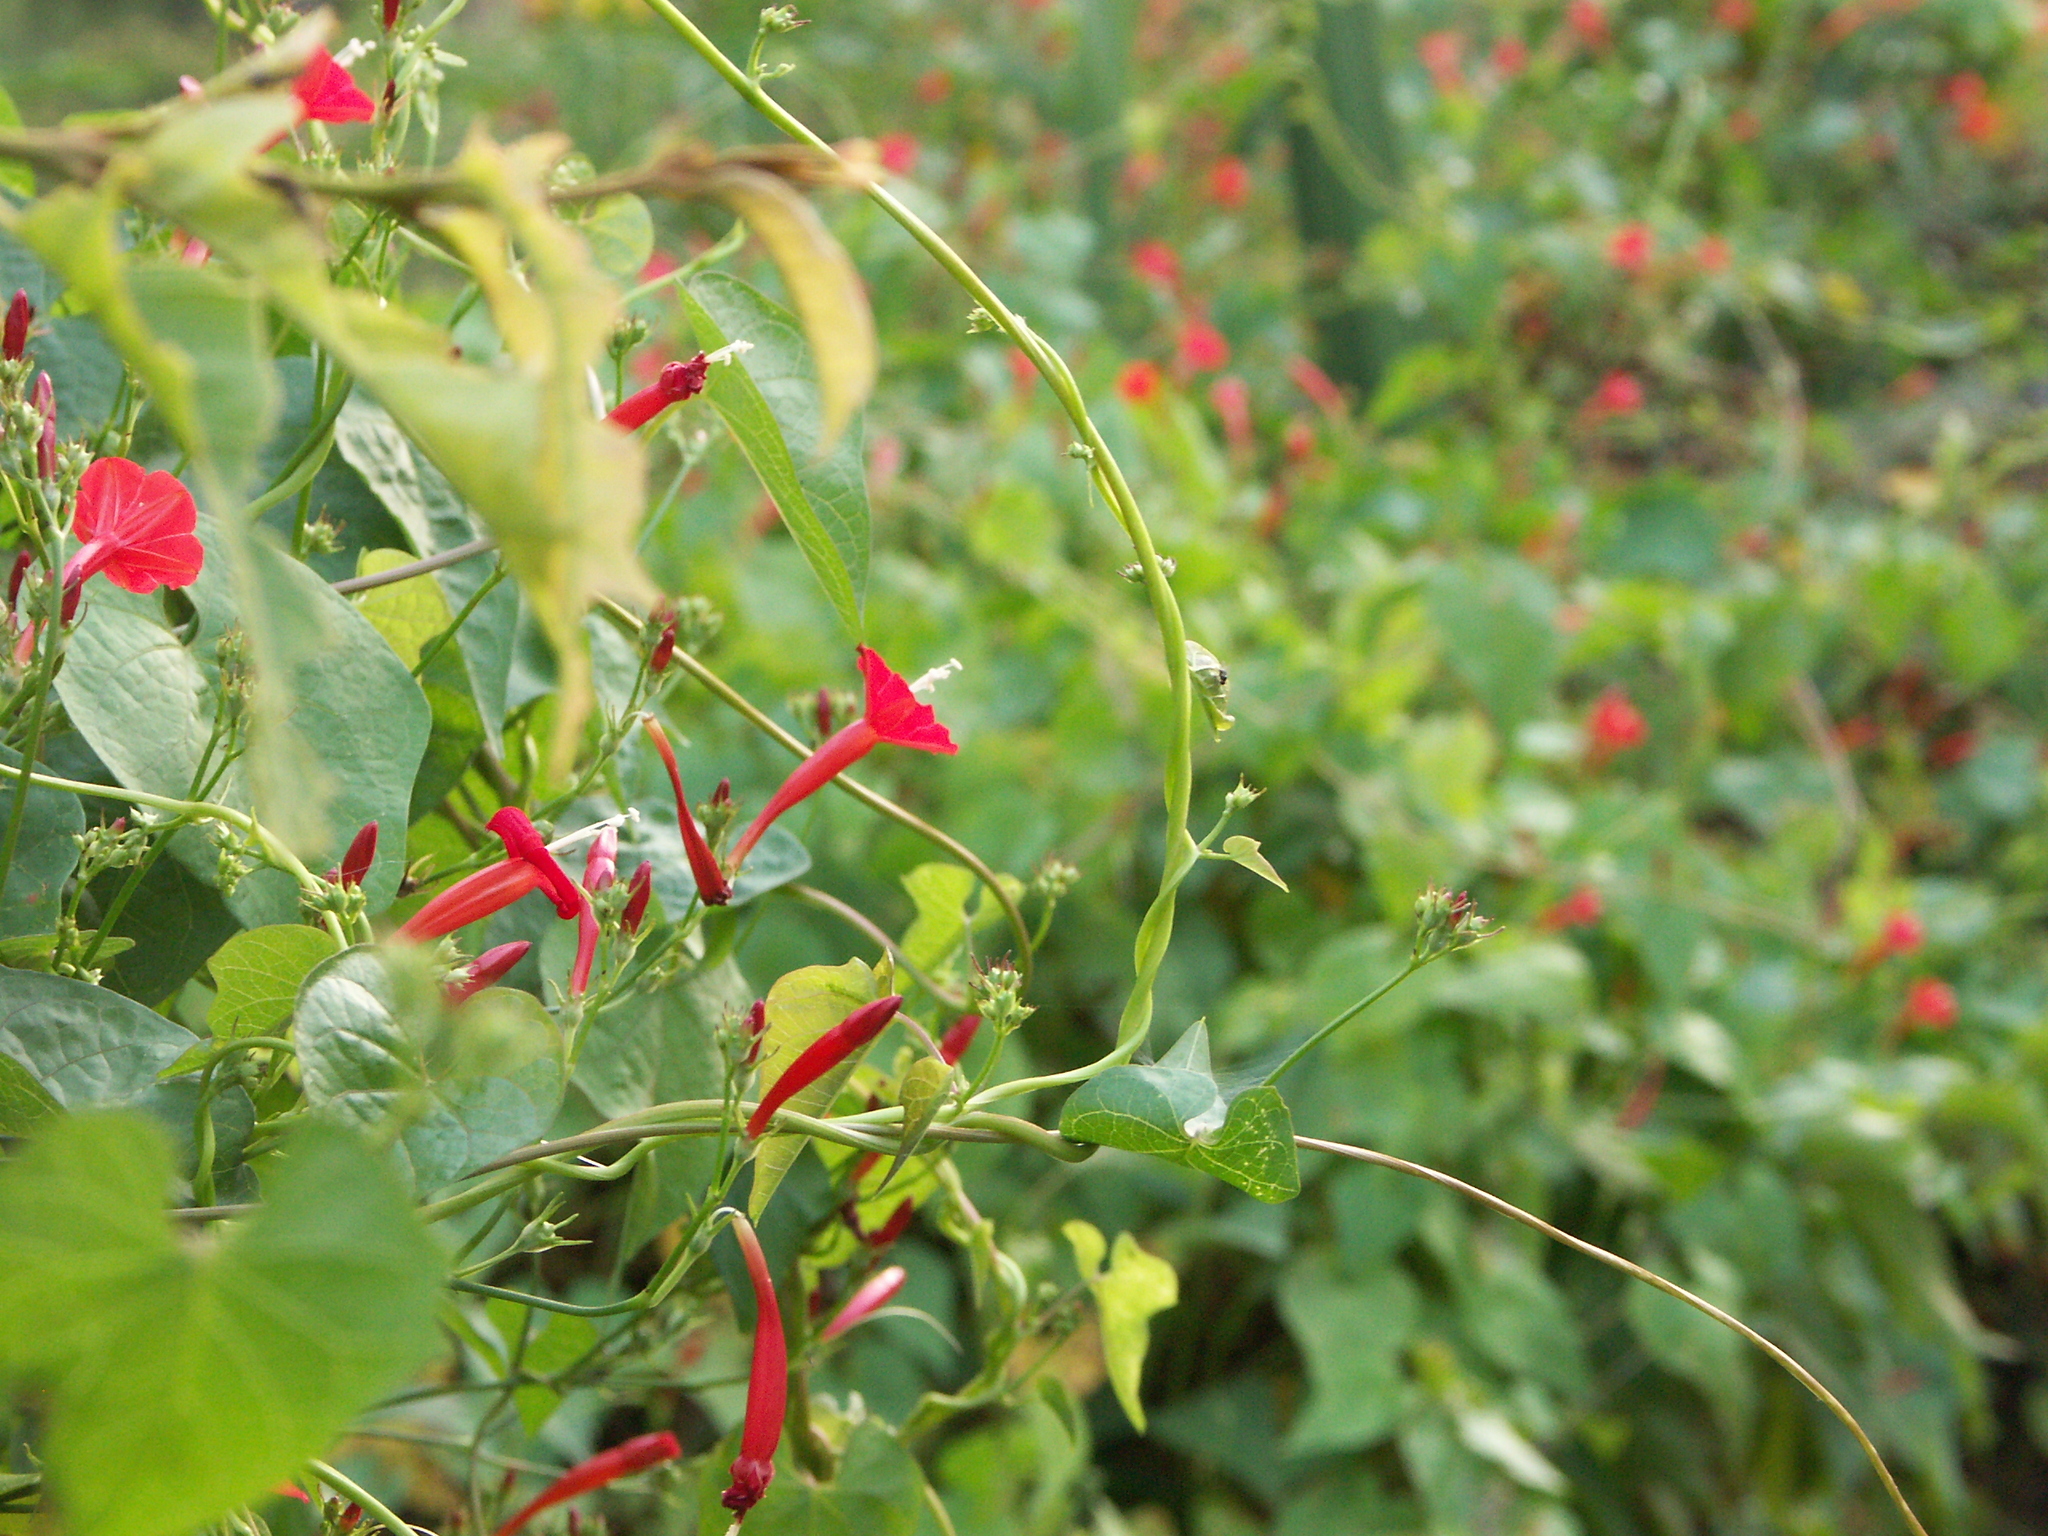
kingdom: Plantae
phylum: Tracheophyta
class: Magnoliopsida
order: Solanales
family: Convolvulaceae
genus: Ipomoea
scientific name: Ipomoea hederifolia
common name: Ivy-leaf morning-glory
